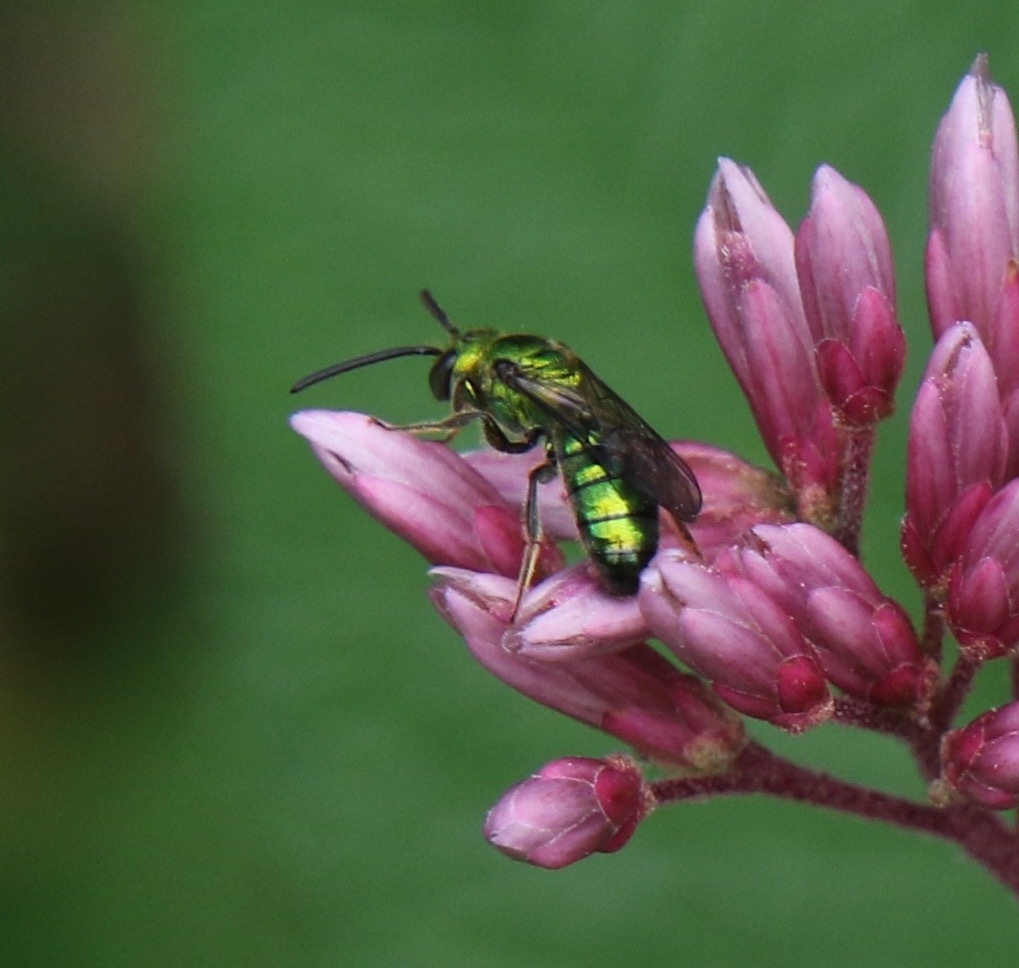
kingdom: Animalia
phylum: Arthropoda
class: Insecta
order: Hymenoptera
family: Halictidae
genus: Augochlora
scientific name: Augochlora pura
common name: Pure green sweat bee
